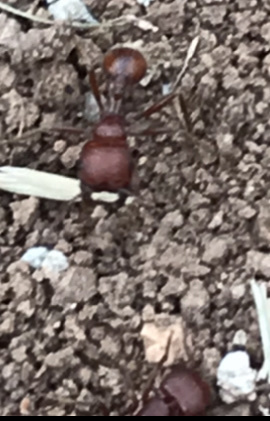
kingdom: Animalia
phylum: Arthropoda
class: Insecta
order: Hymenoptera
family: Formicidae
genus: Pogonomyrmex
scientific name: Pogonomyrmex barbatus
